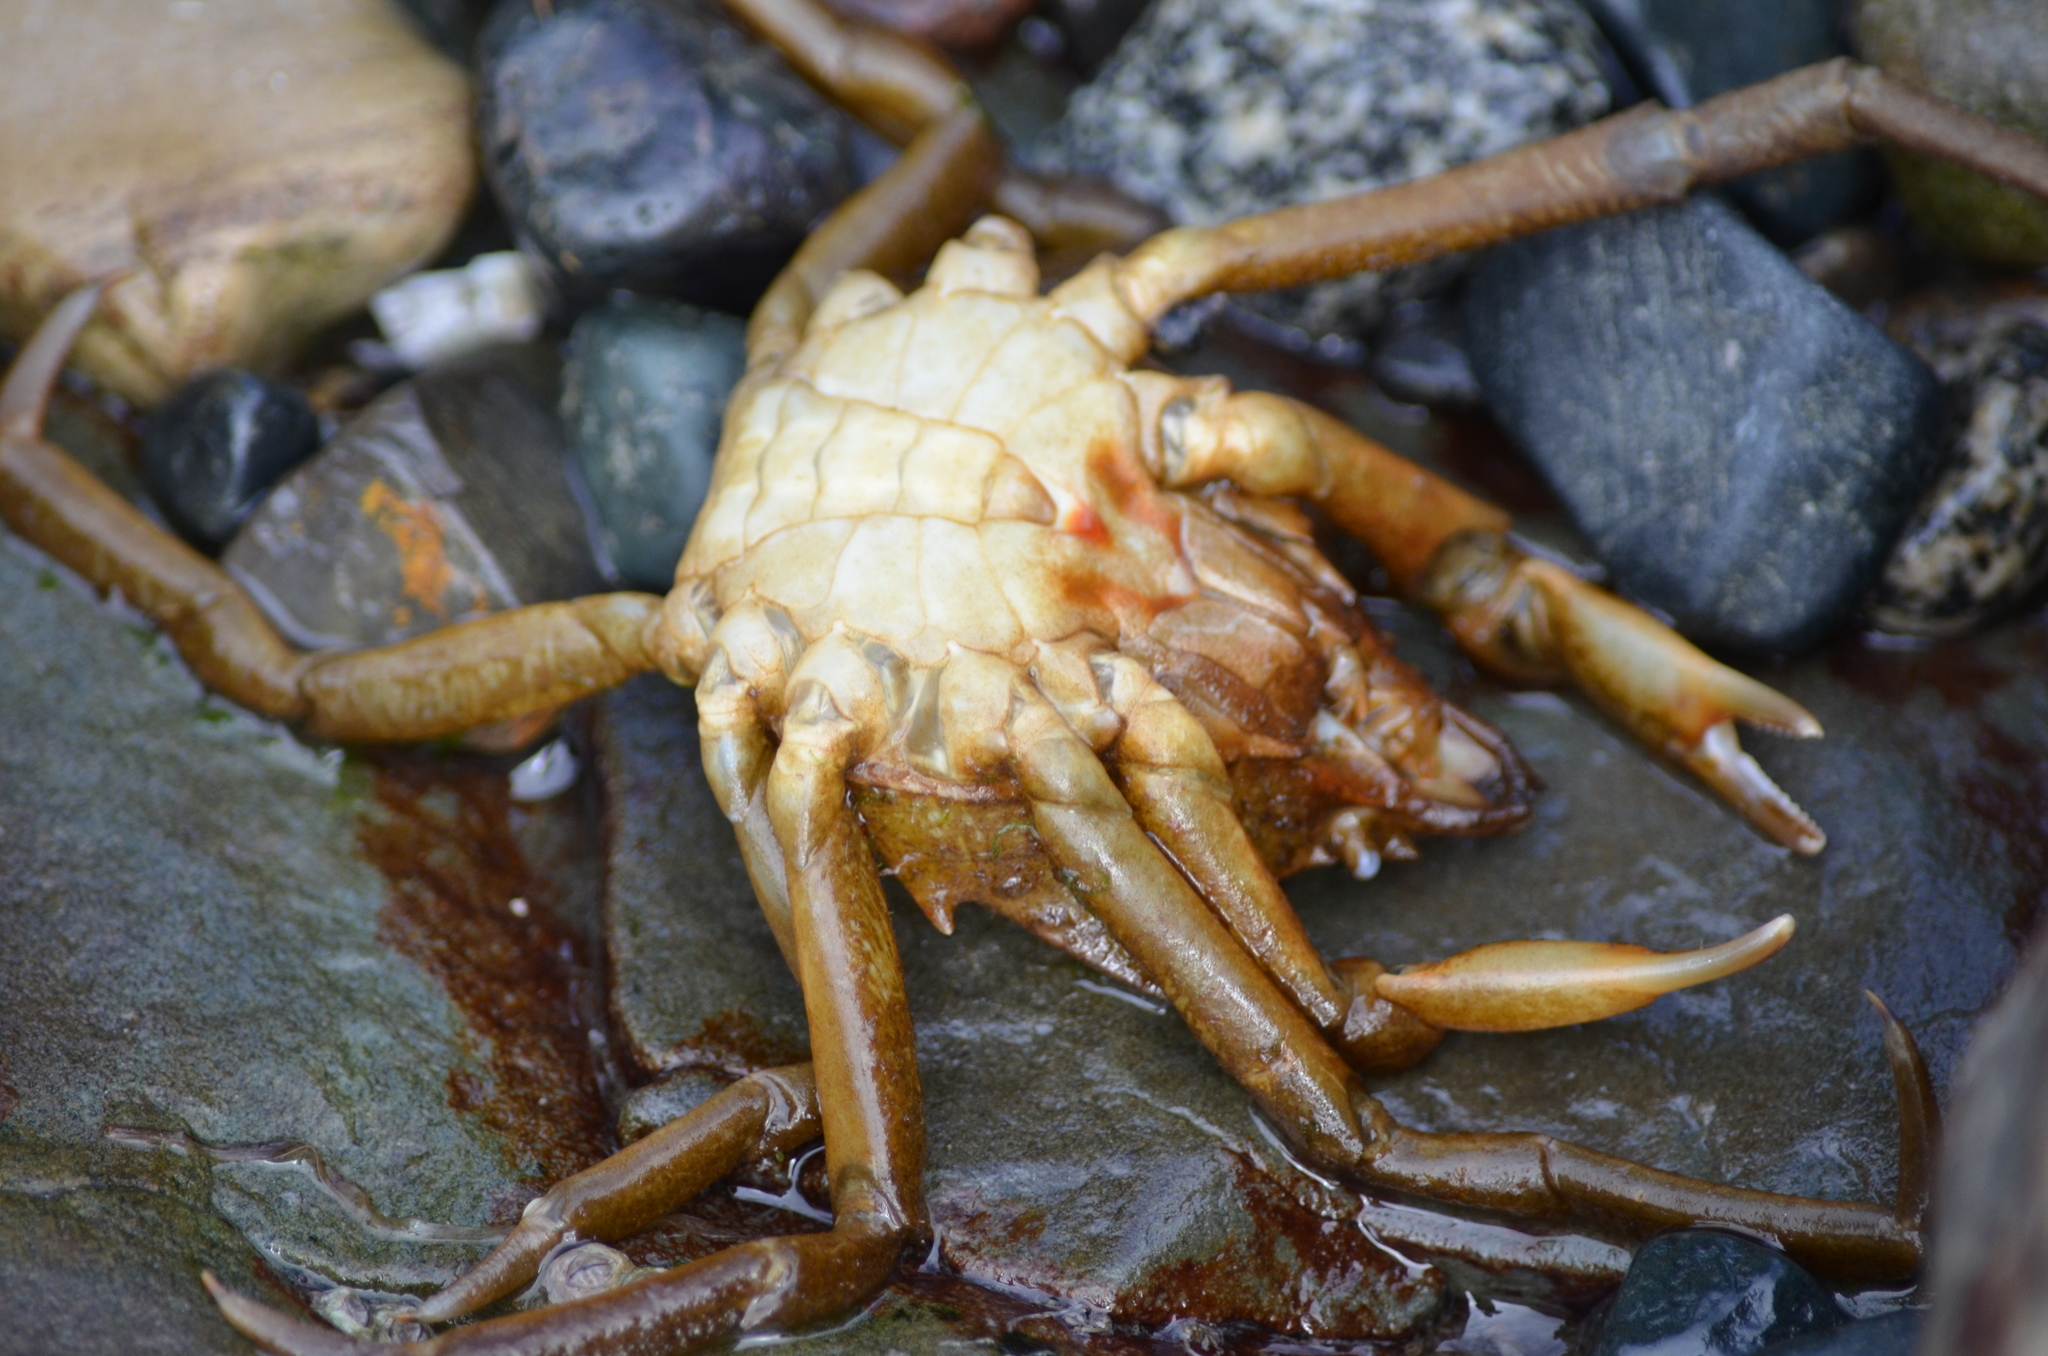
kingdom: Animalia
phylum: Arthropoda
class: Malacostraca
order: Decapoda
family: Epialtidae
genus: Pugettia
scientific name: Pugettia producta
